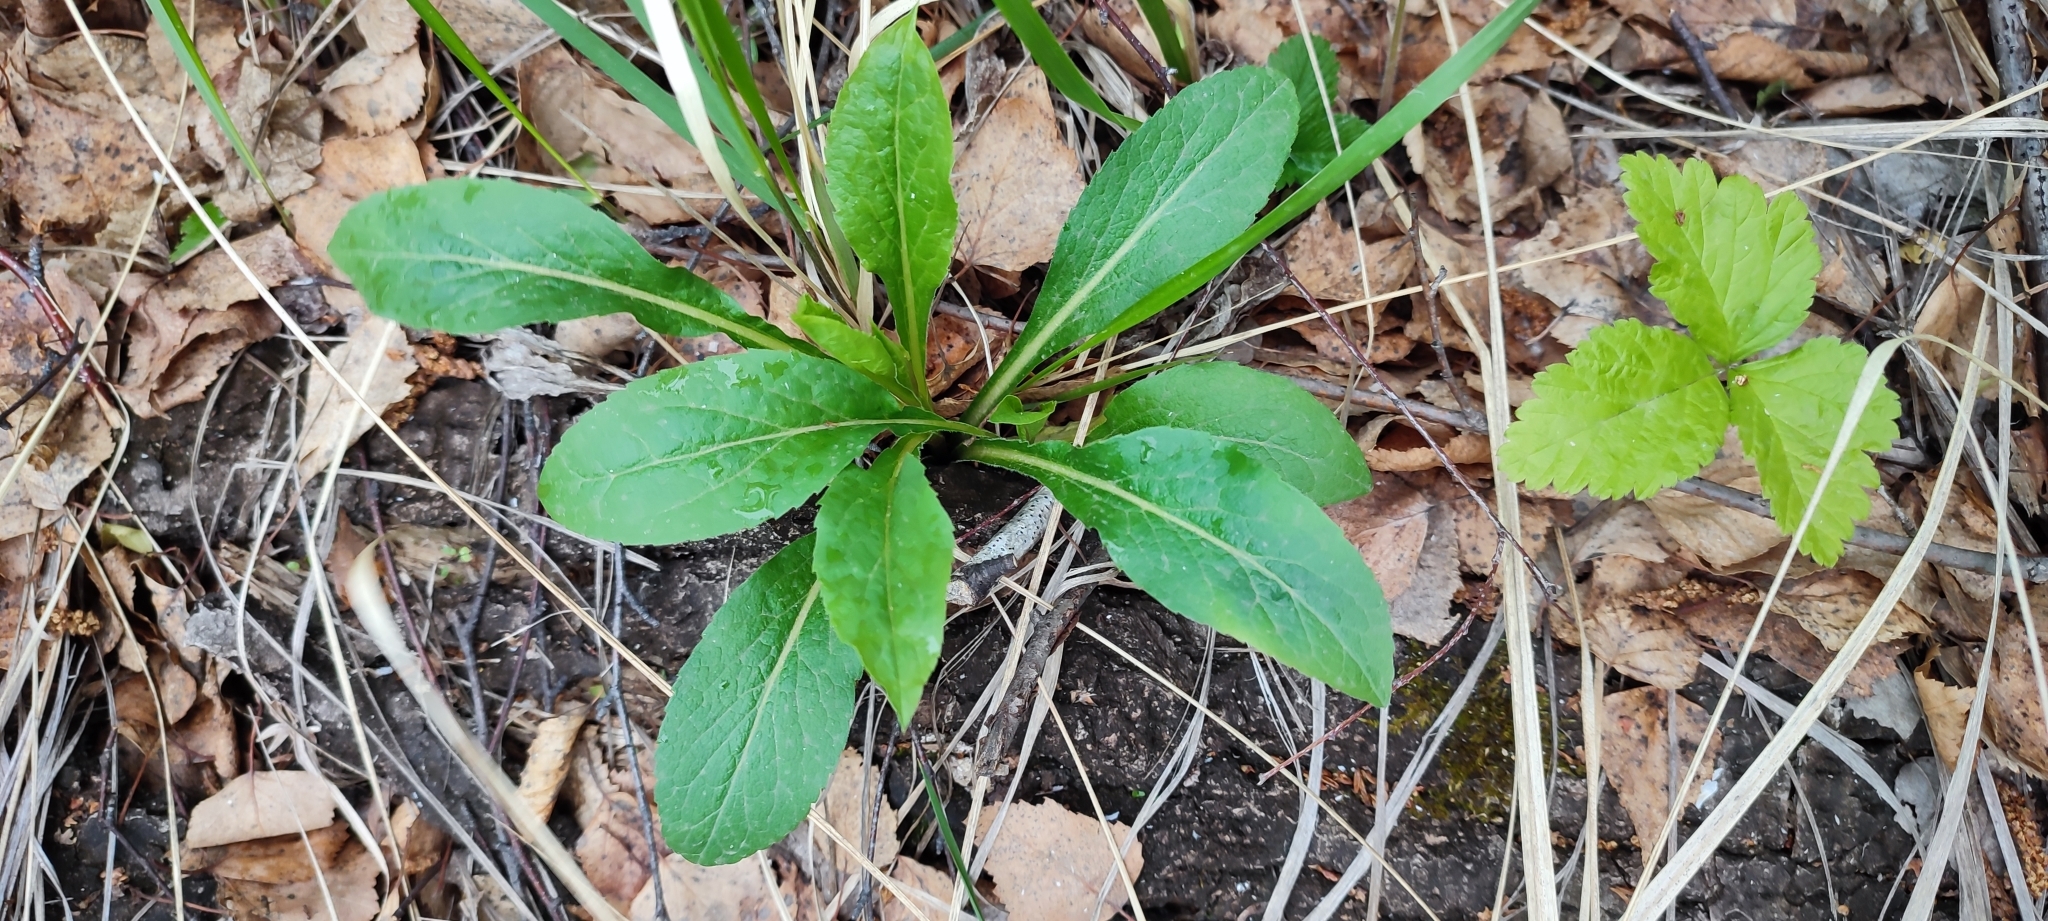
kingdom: Plantae
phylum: Tracheophyta
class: Magnoliopsida
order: Asterales
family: Asteraceae
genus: Solidago
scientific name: Solidago virgaurea
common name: Goldenrod
